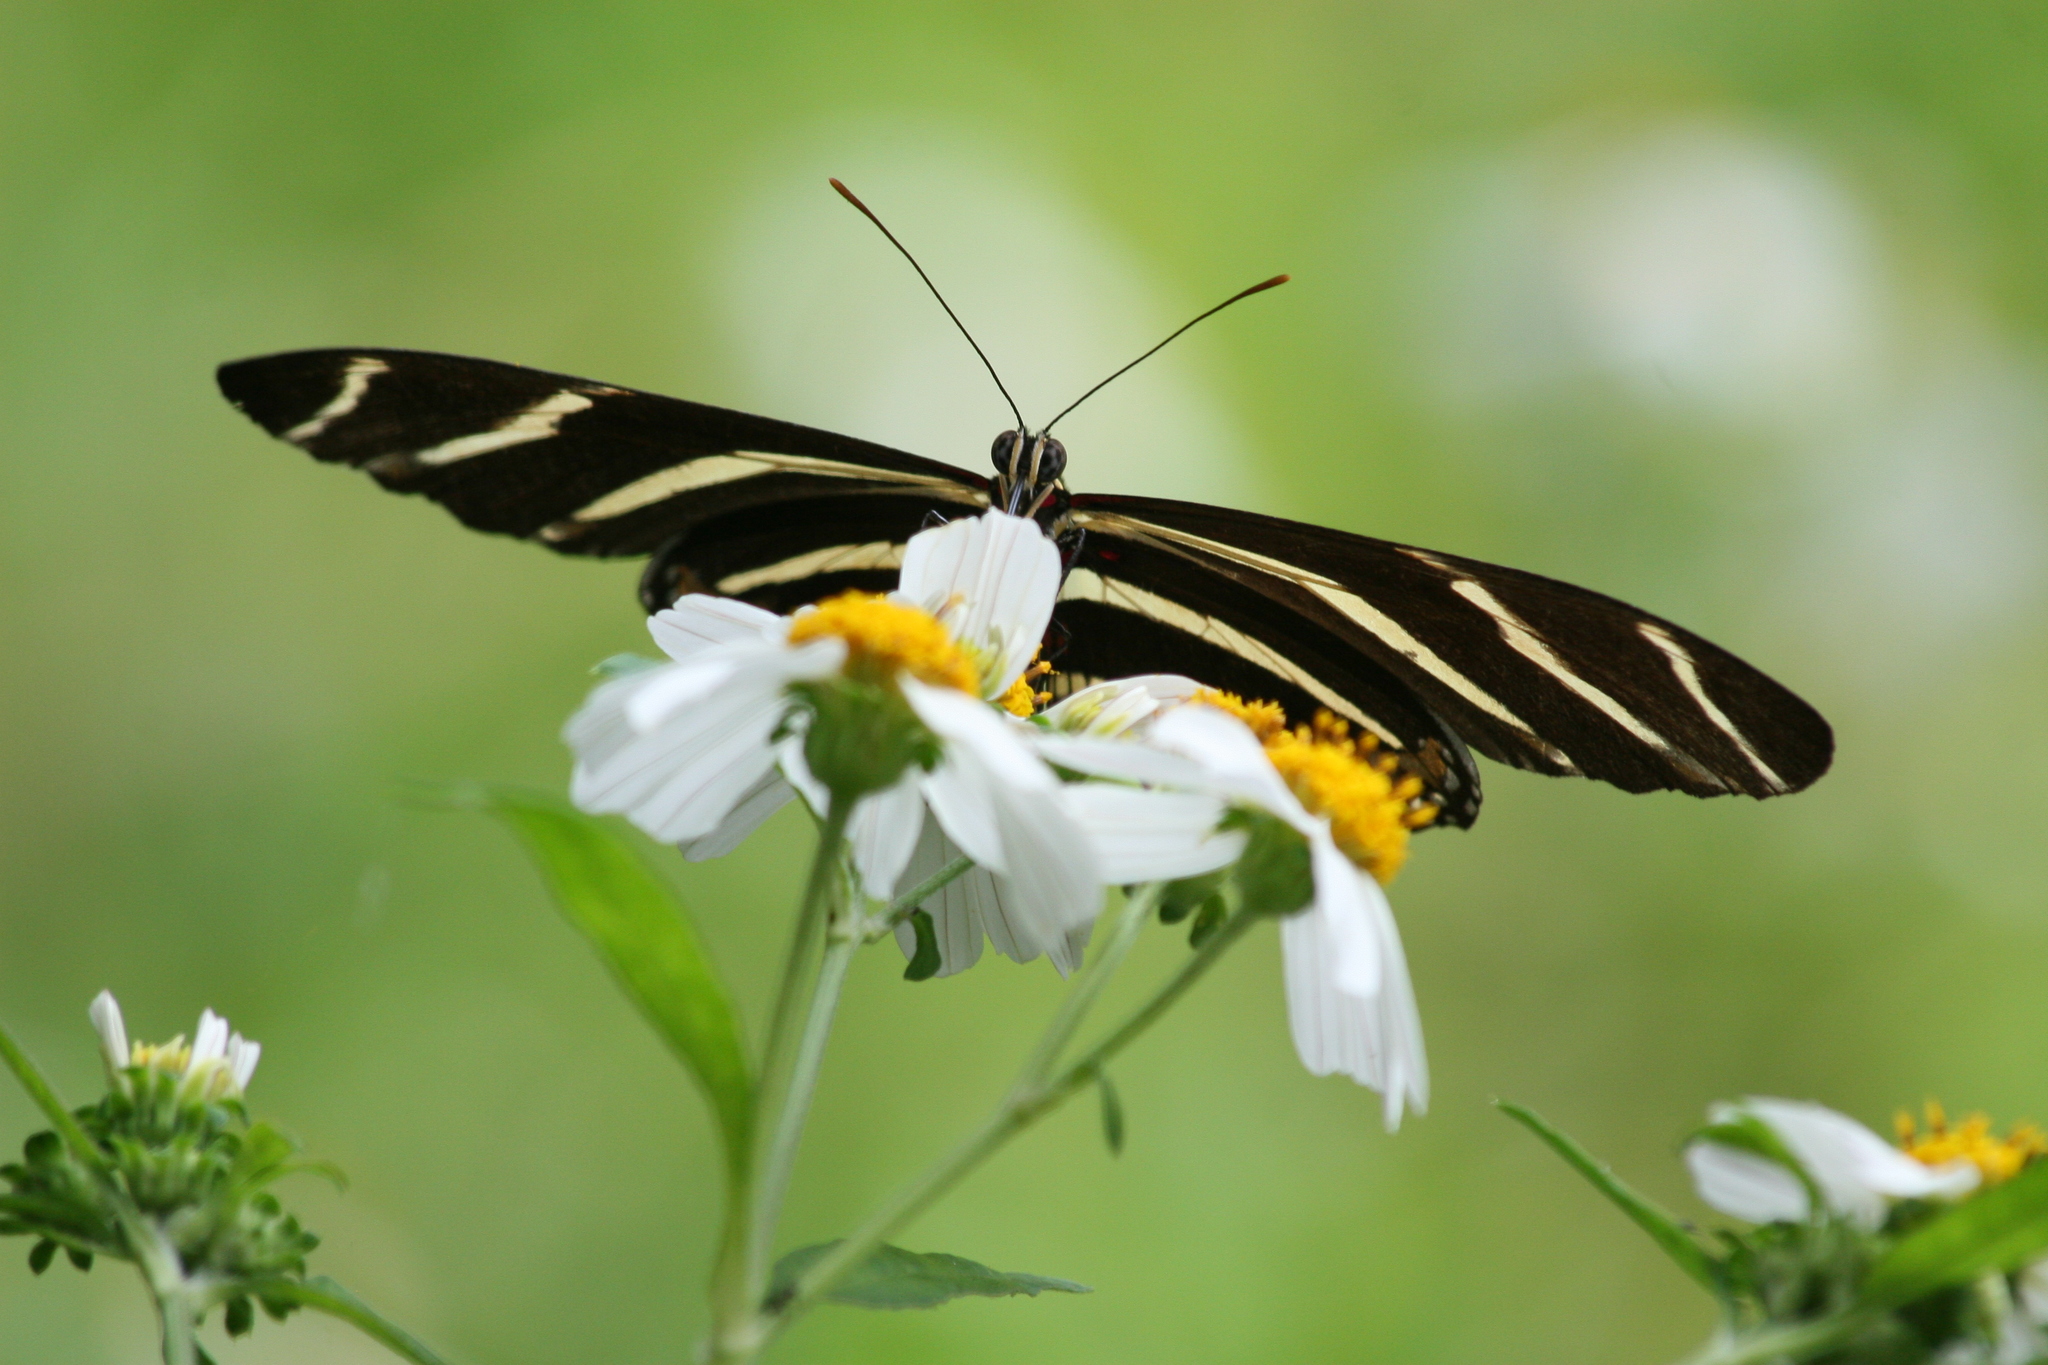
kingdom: Animalia
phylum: Arthropoda
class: Insecta
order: Lepidoptera
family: Nymphalidae
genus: Heliconius
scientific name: Heliconius charithonia
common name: Zebra long wing
